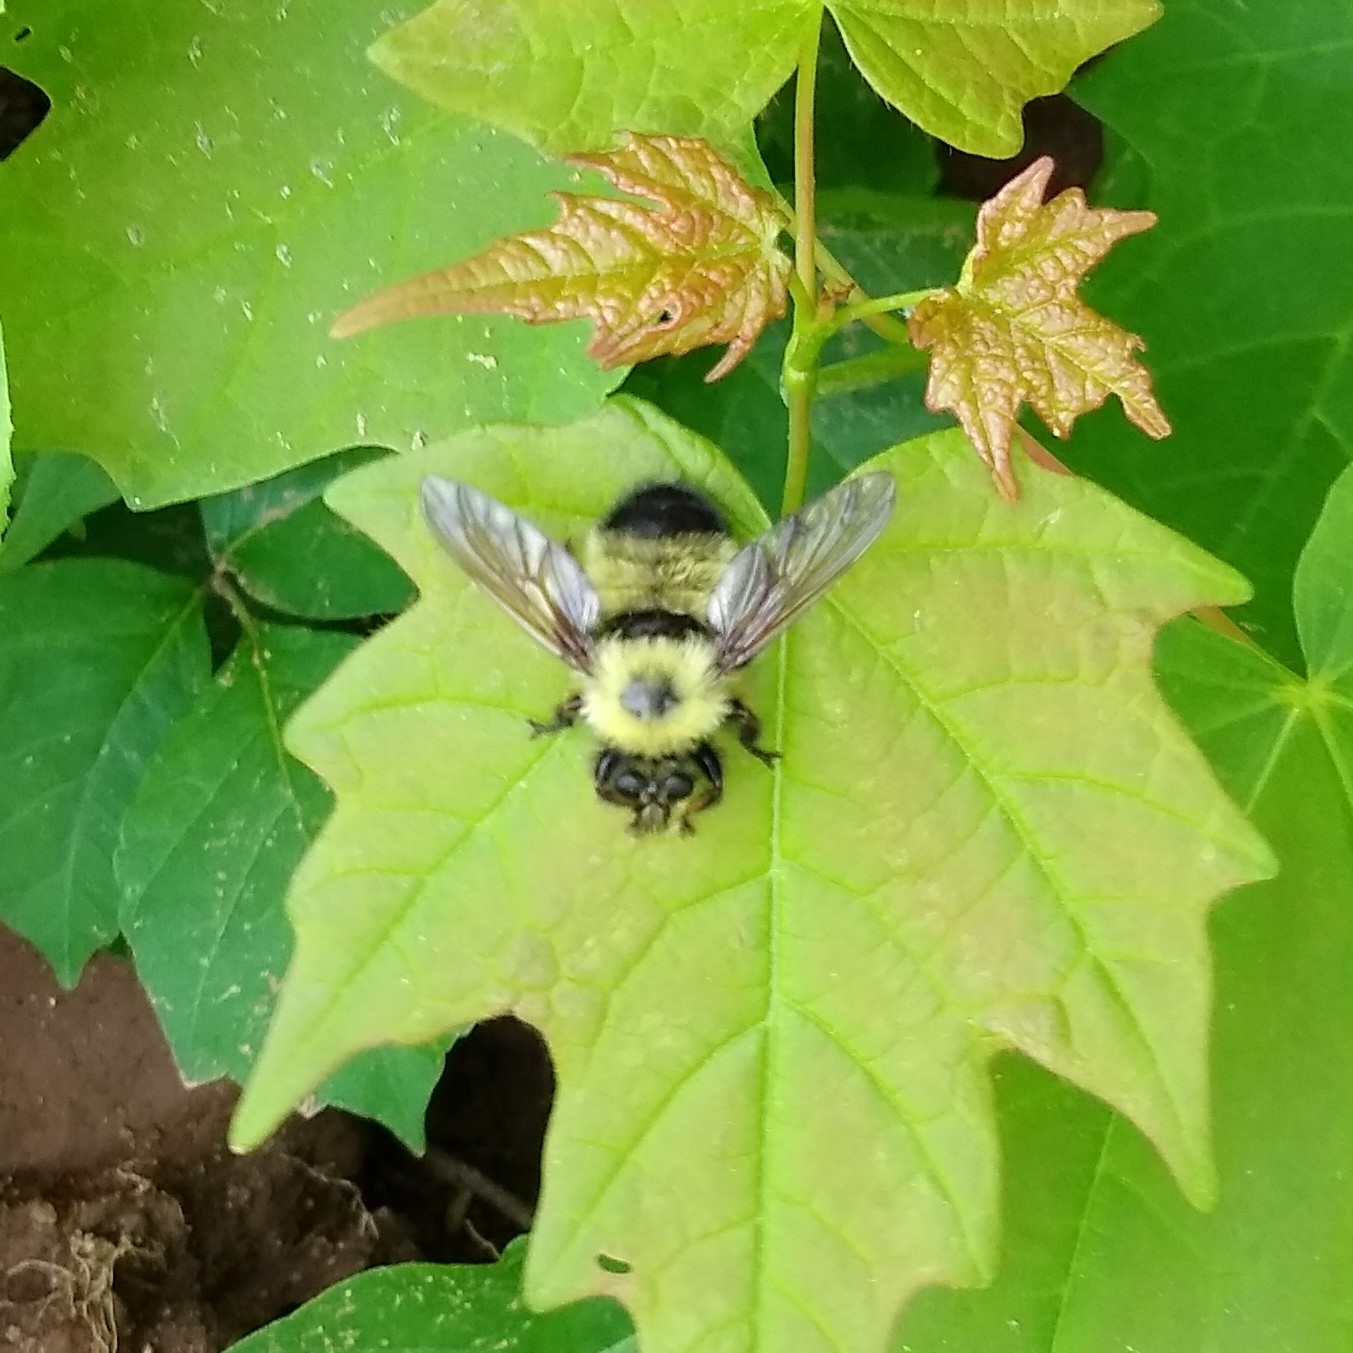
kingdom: Animalia
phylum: Arthropoda
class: Insecta
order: Diptera
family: Asilidae
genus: Laphria
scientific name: Laphria thoracica
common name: Bumble bee mimic robber fly
